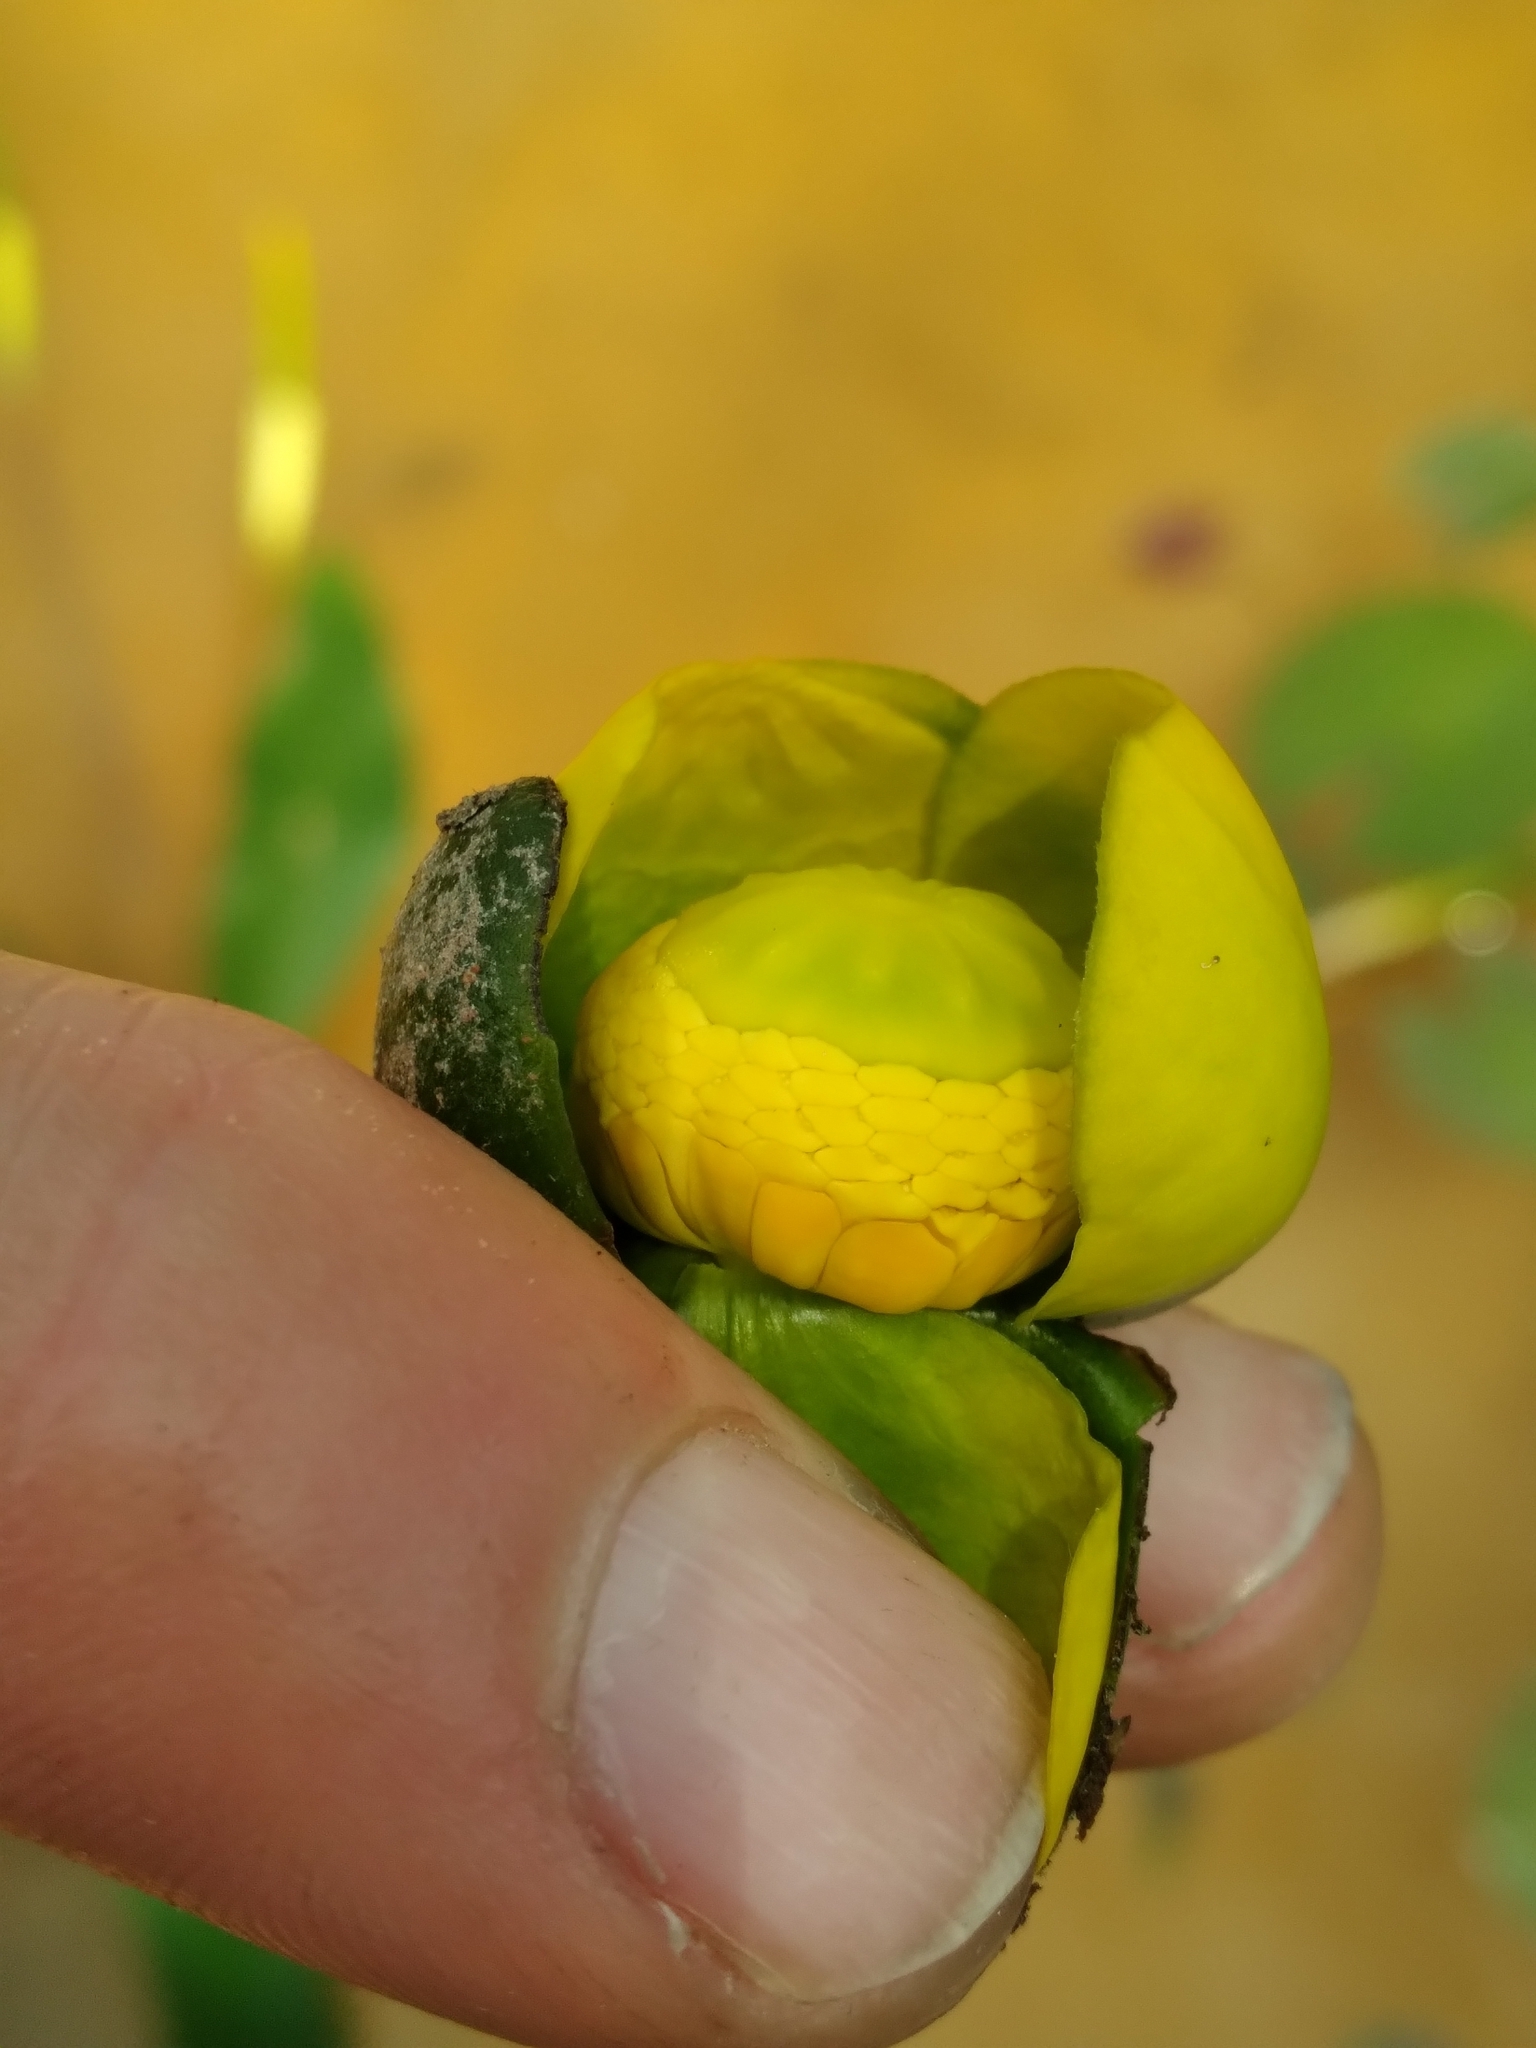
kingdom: Plantae
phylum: Tracheophyta
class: Magnoliopsida
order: Nymphaeales
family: Nymphaeaceae
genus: Nuphar
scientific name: Nuphar sagittifolia
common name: Cape fear spatterdock
